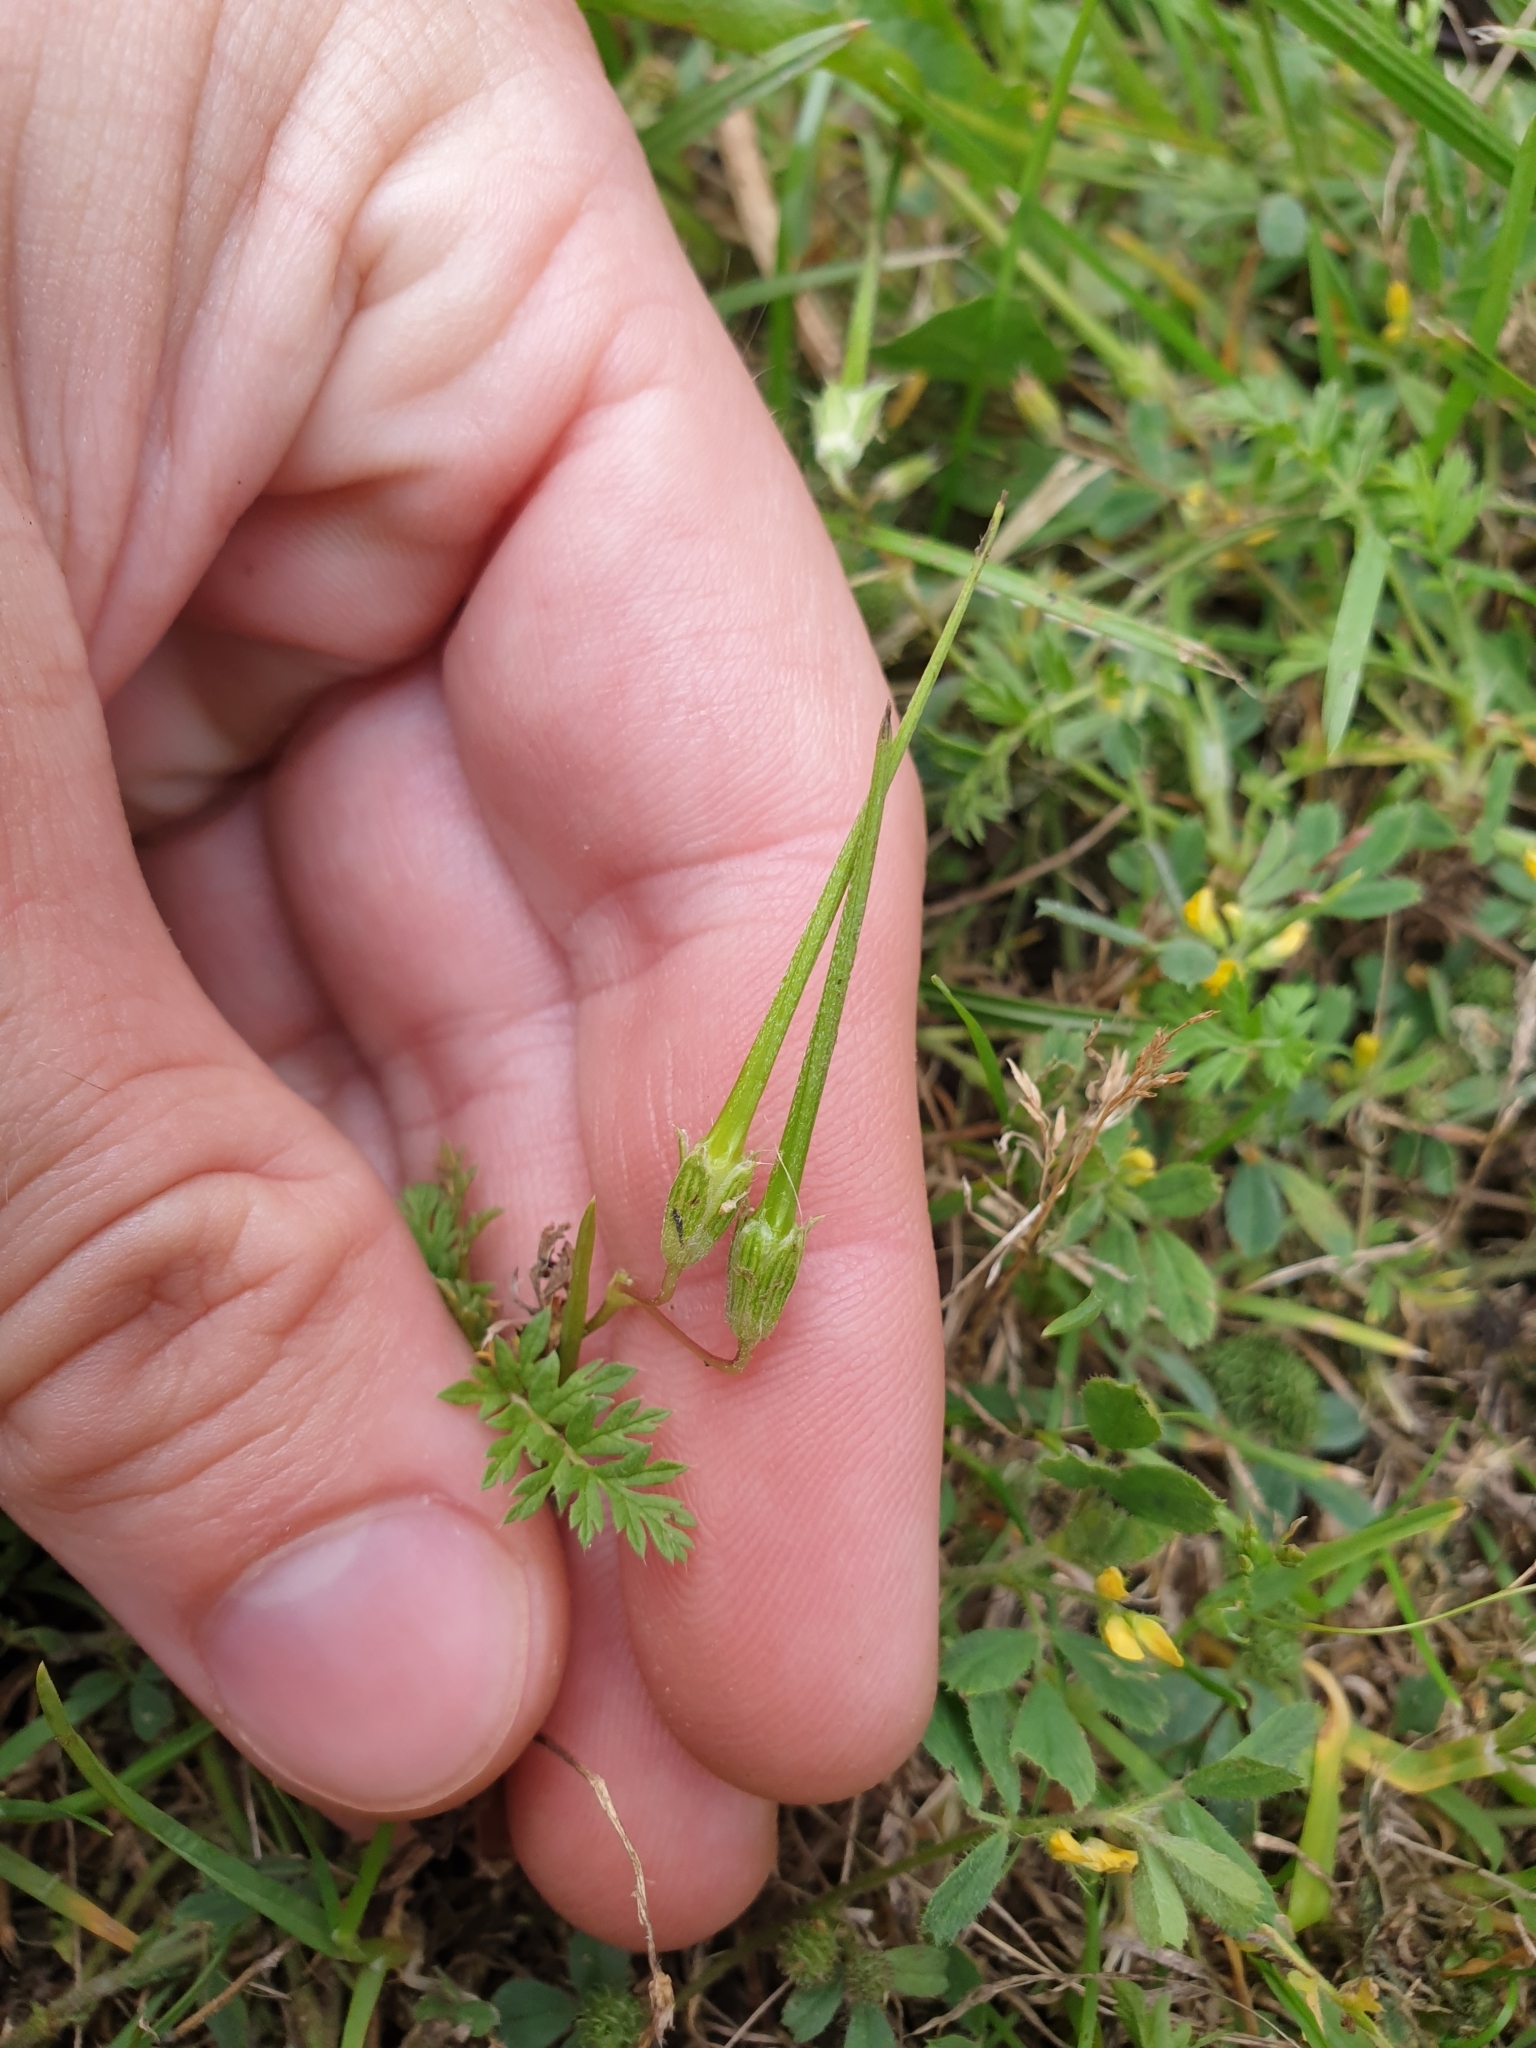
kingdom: Plantae
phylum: Tracheophyta
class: Magnoliopsida
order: Geraniales
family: Geraniaceae
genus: Erodium
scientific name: Erodium cicutarium
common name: Common stork's-bill
